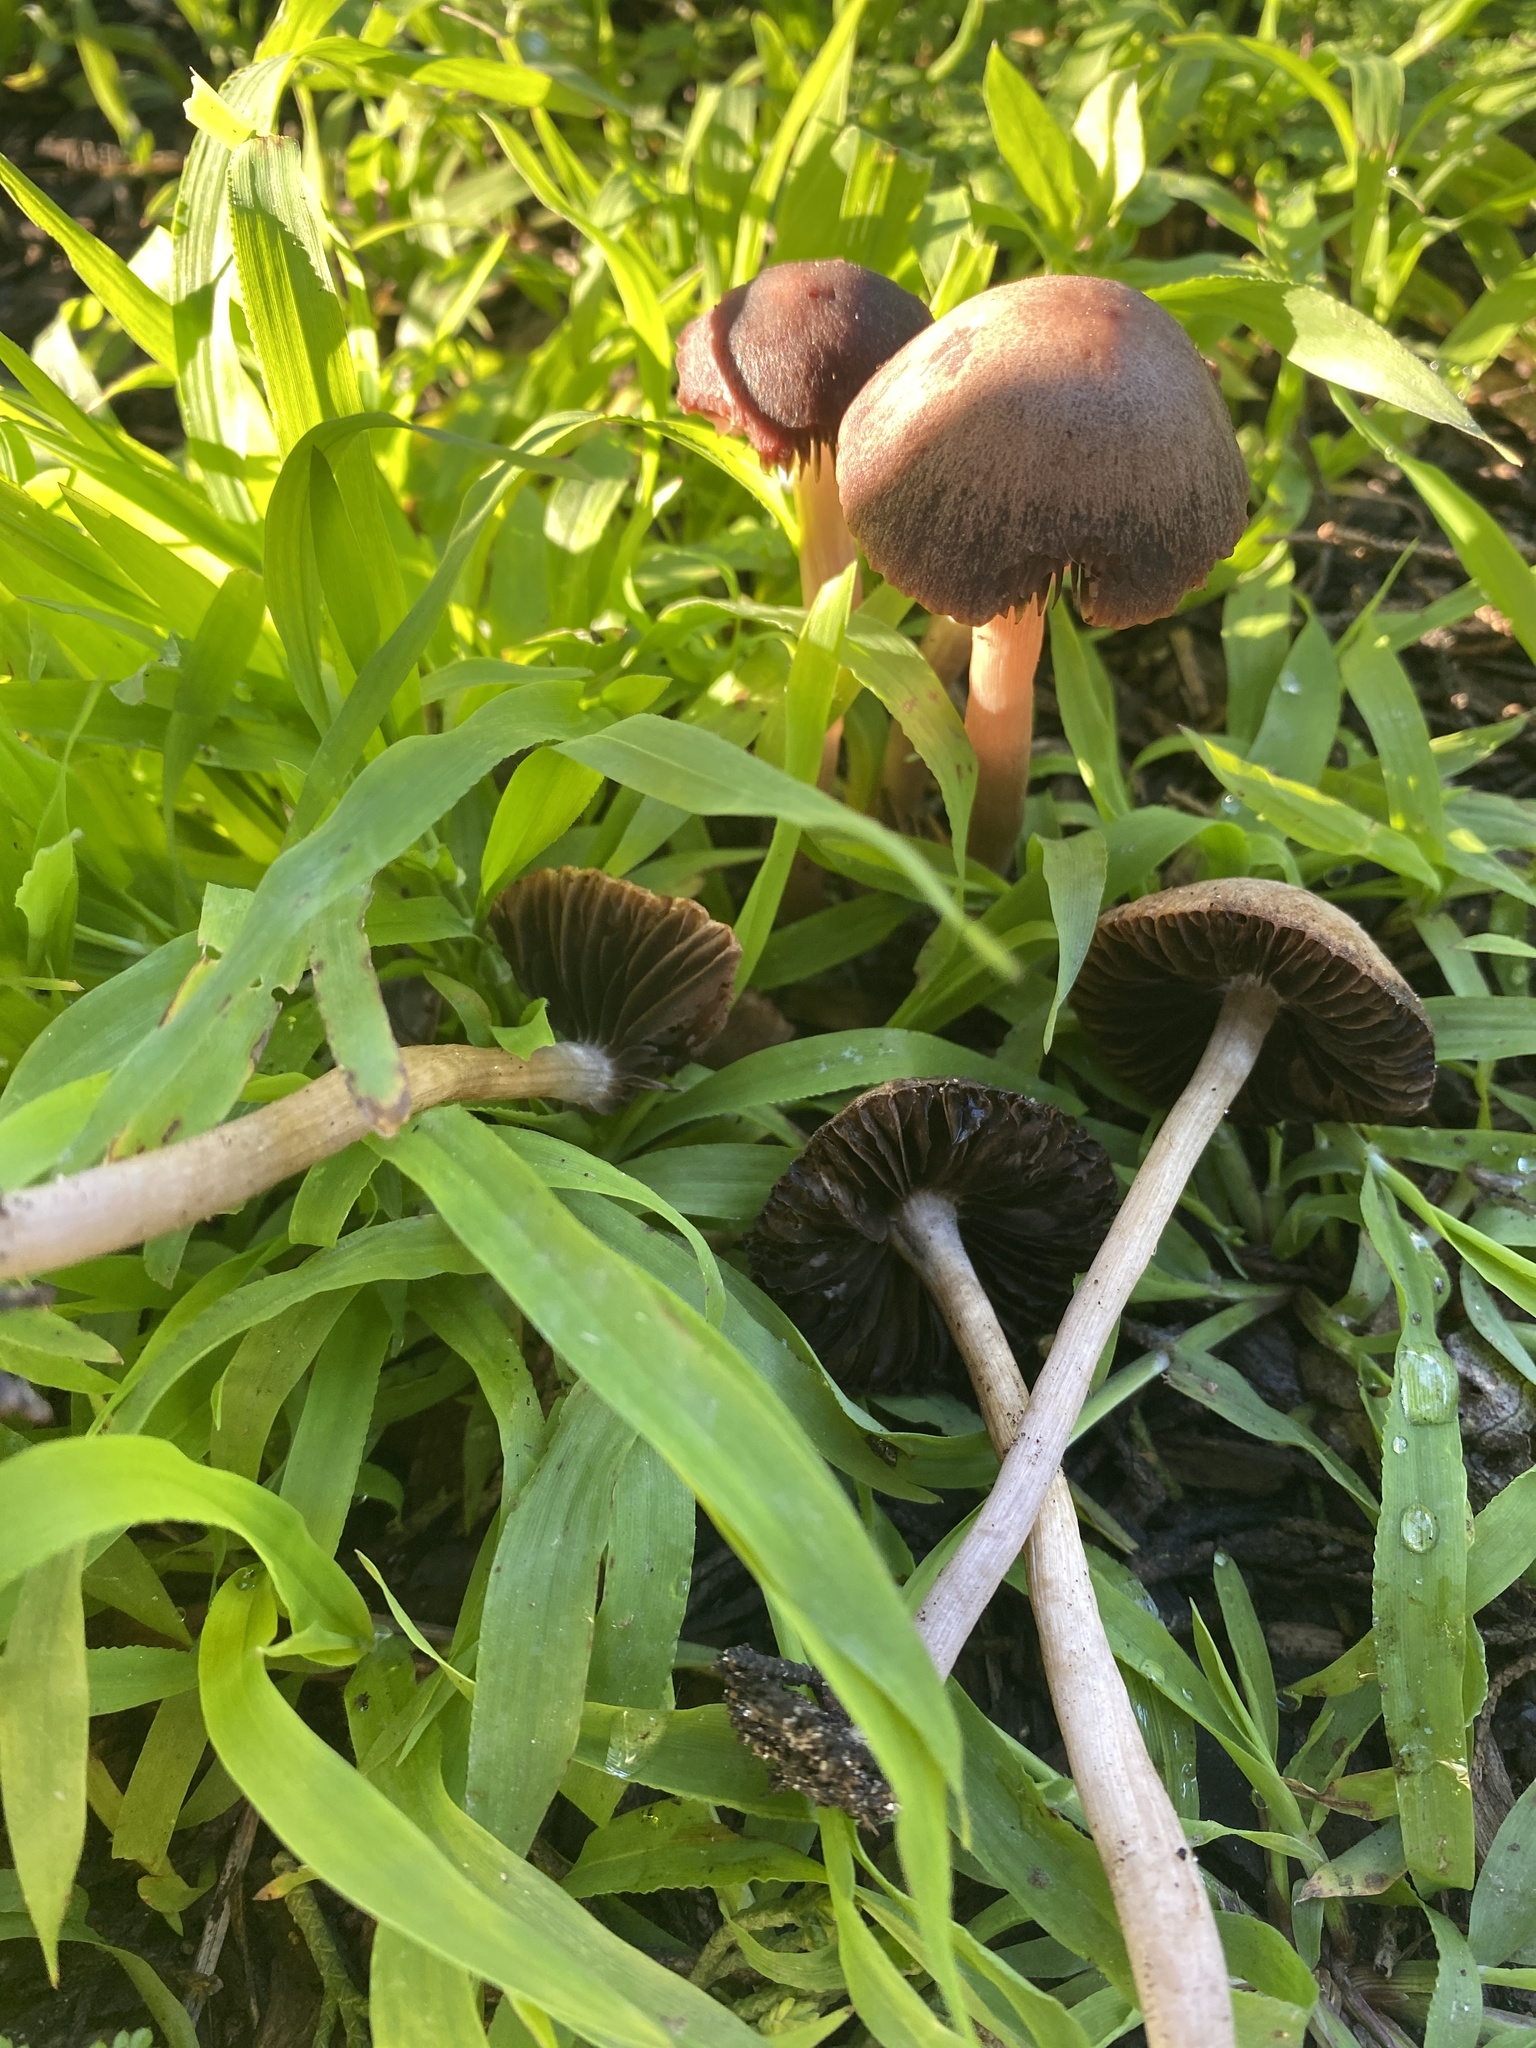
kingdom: Fungi
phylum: Basidiomycota
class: Agaricomycetes
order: Agaricales
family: Psathyrellaceae
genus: Psathyrella
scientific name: Psathyrella bipellis
